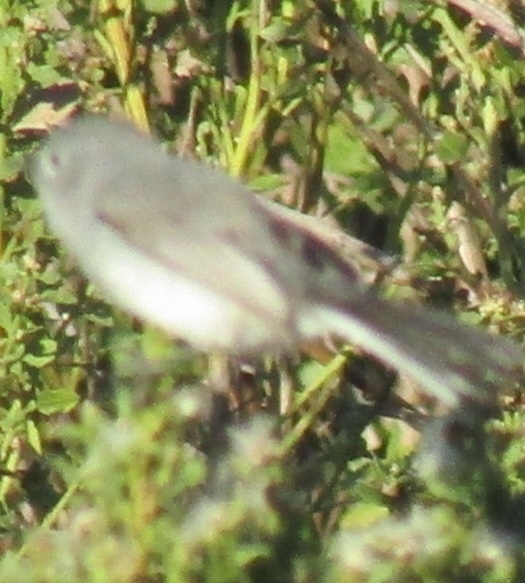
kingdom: Animalia
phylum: Chordata
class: Aves
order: Passeriformes
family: Polioptilidae
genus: Polioptila
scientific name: Polioptila caerulea
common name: Blue-gray gnatcatcher
